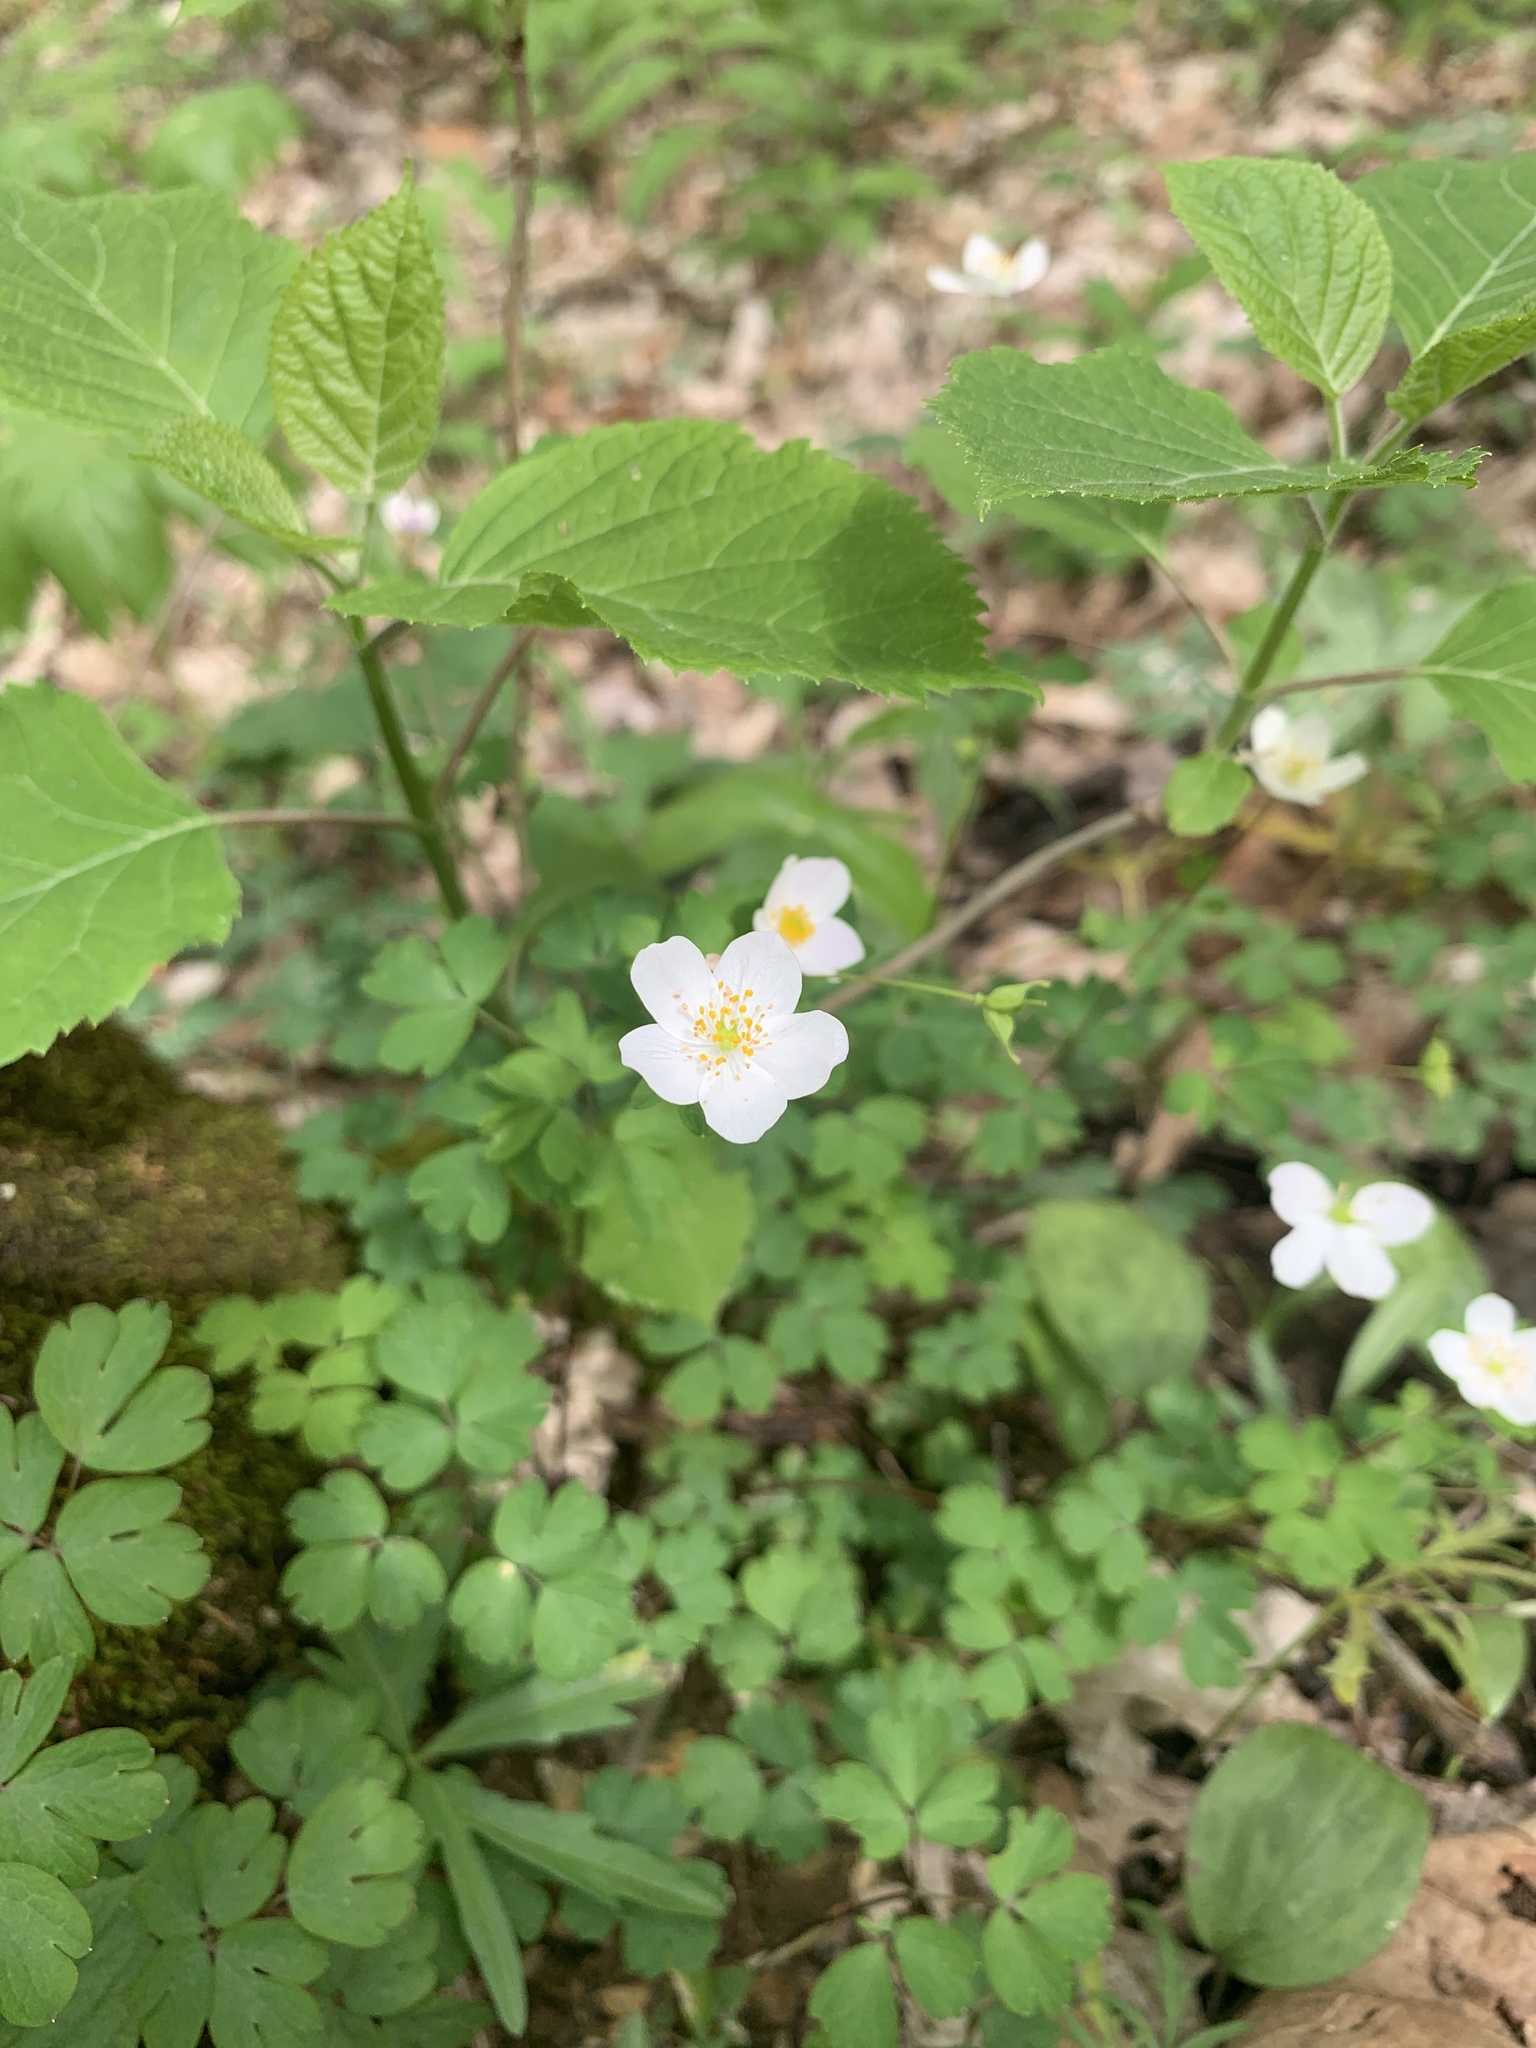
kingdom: Plantae
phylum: Tracheophyta
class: Magnoliopsida
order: Ranunculales
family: Ranunculaceae
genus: Enemion
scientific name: Enemion biternatum
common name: Eastern false rue-anemone
